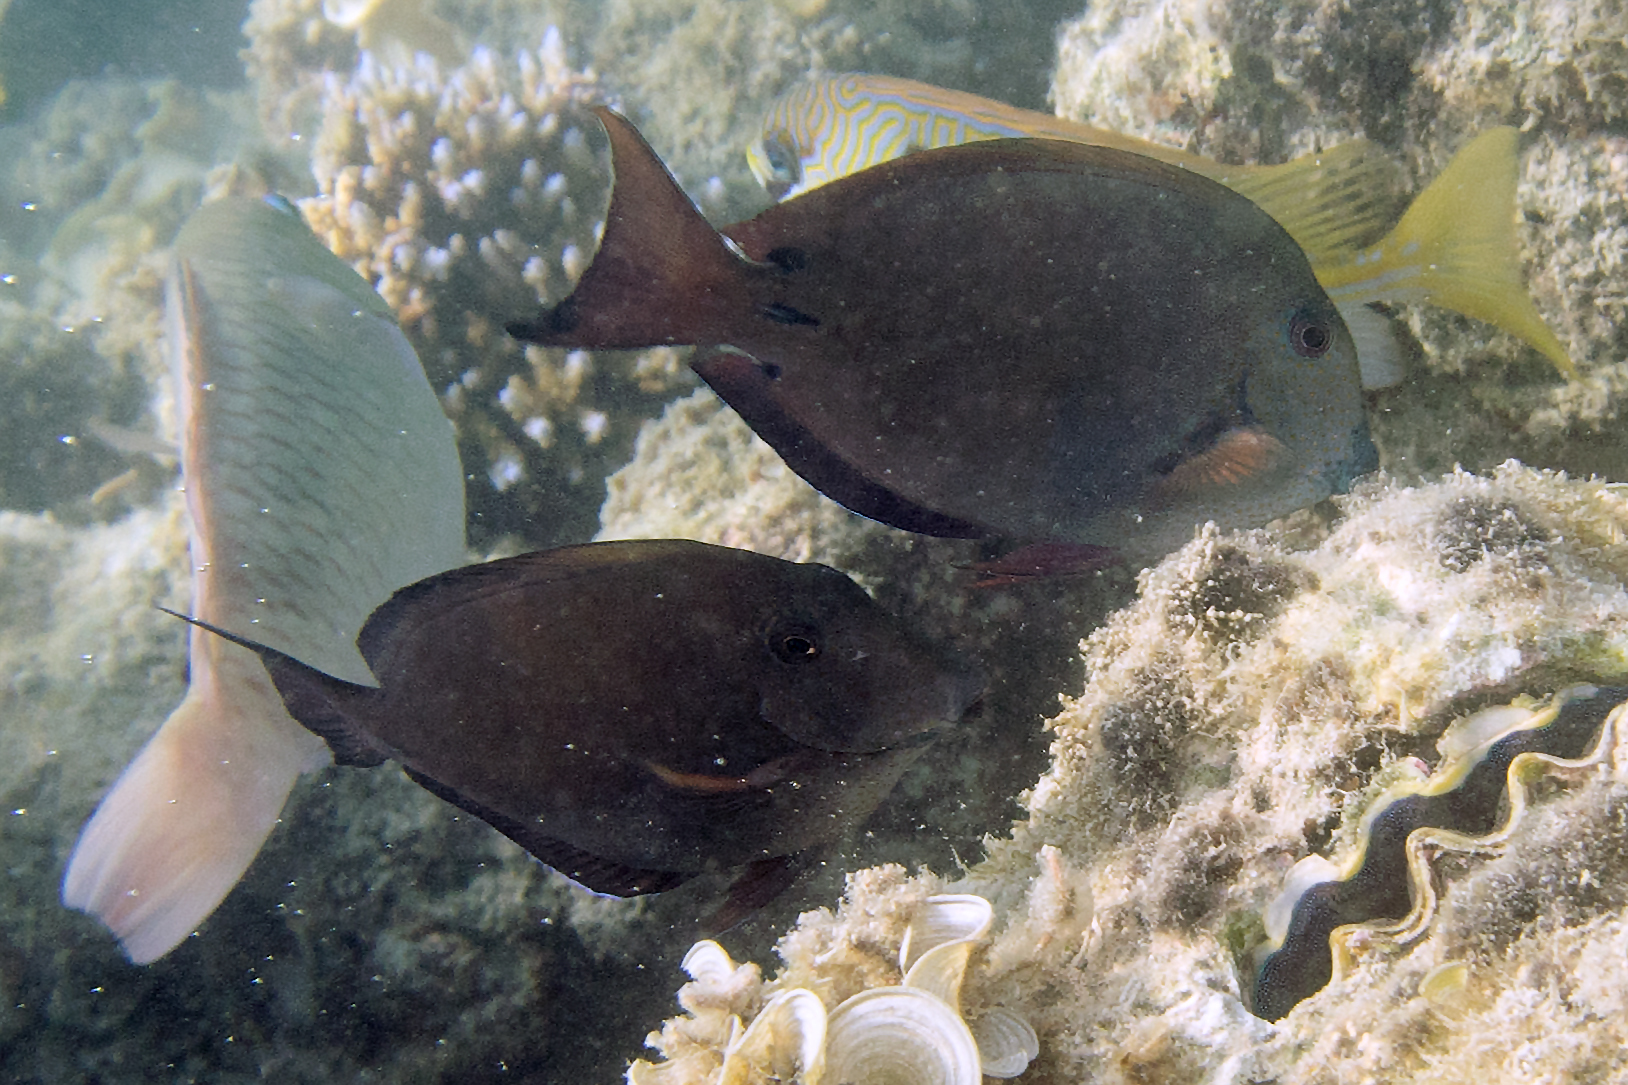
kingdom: Animalia
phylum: Chordata
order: Perciformes
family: Acanthuridae
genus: Acanthurus
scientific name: Acanthurus nigrofuscus
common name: Blackspot surgeonfish
